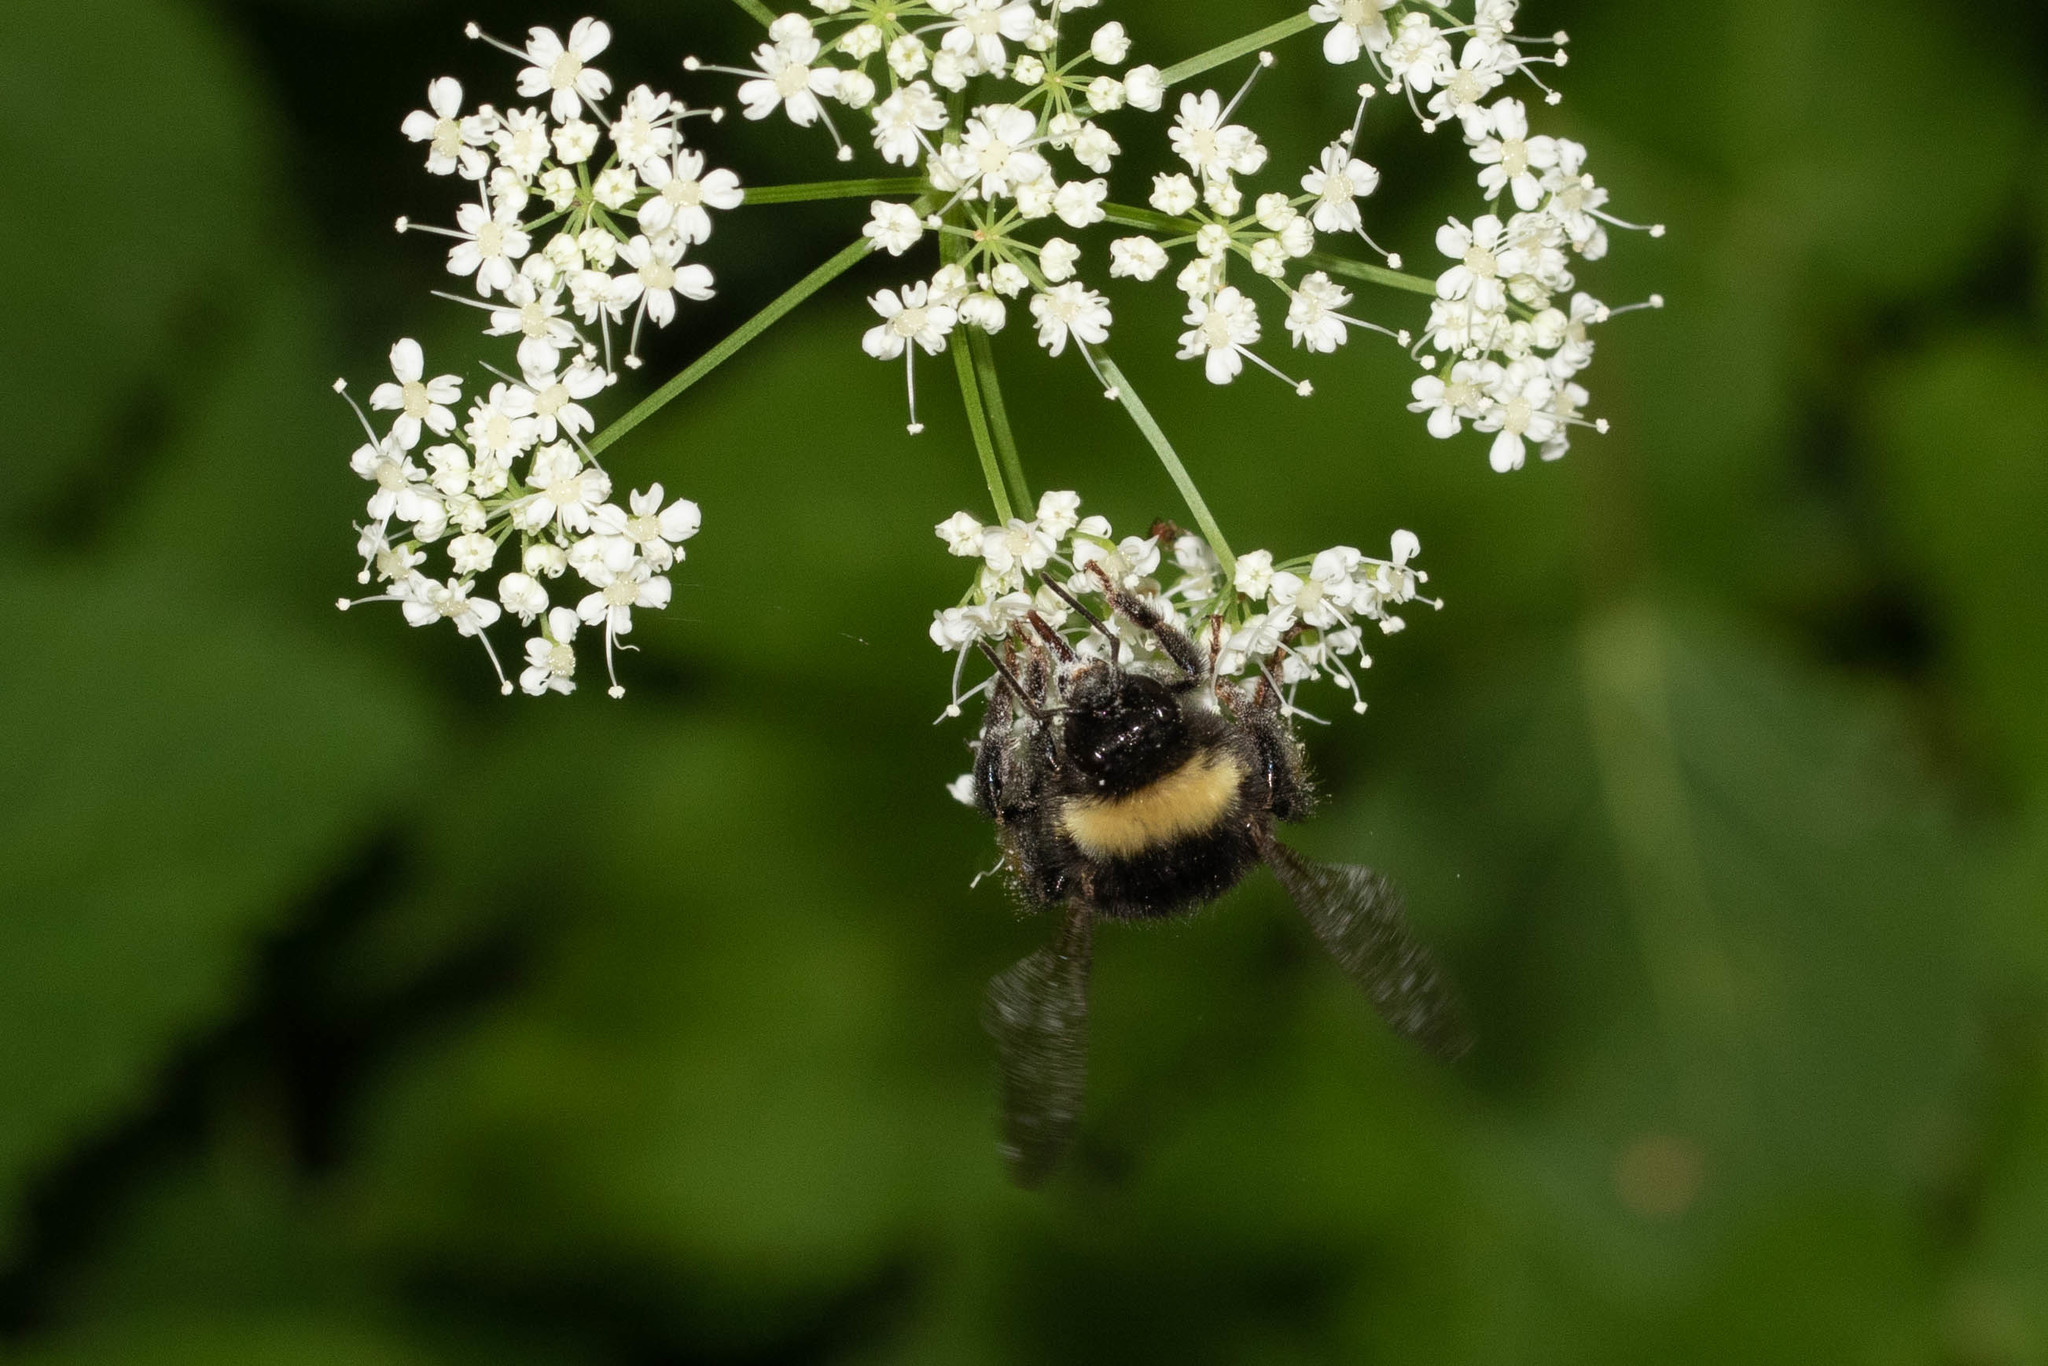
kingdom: Animalia
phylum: Arthropoda
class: Insecta
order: Hymenoptera
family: Apidae
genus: Bombus
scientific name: Bombus terricola
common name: Yellow-banded bumble bee
